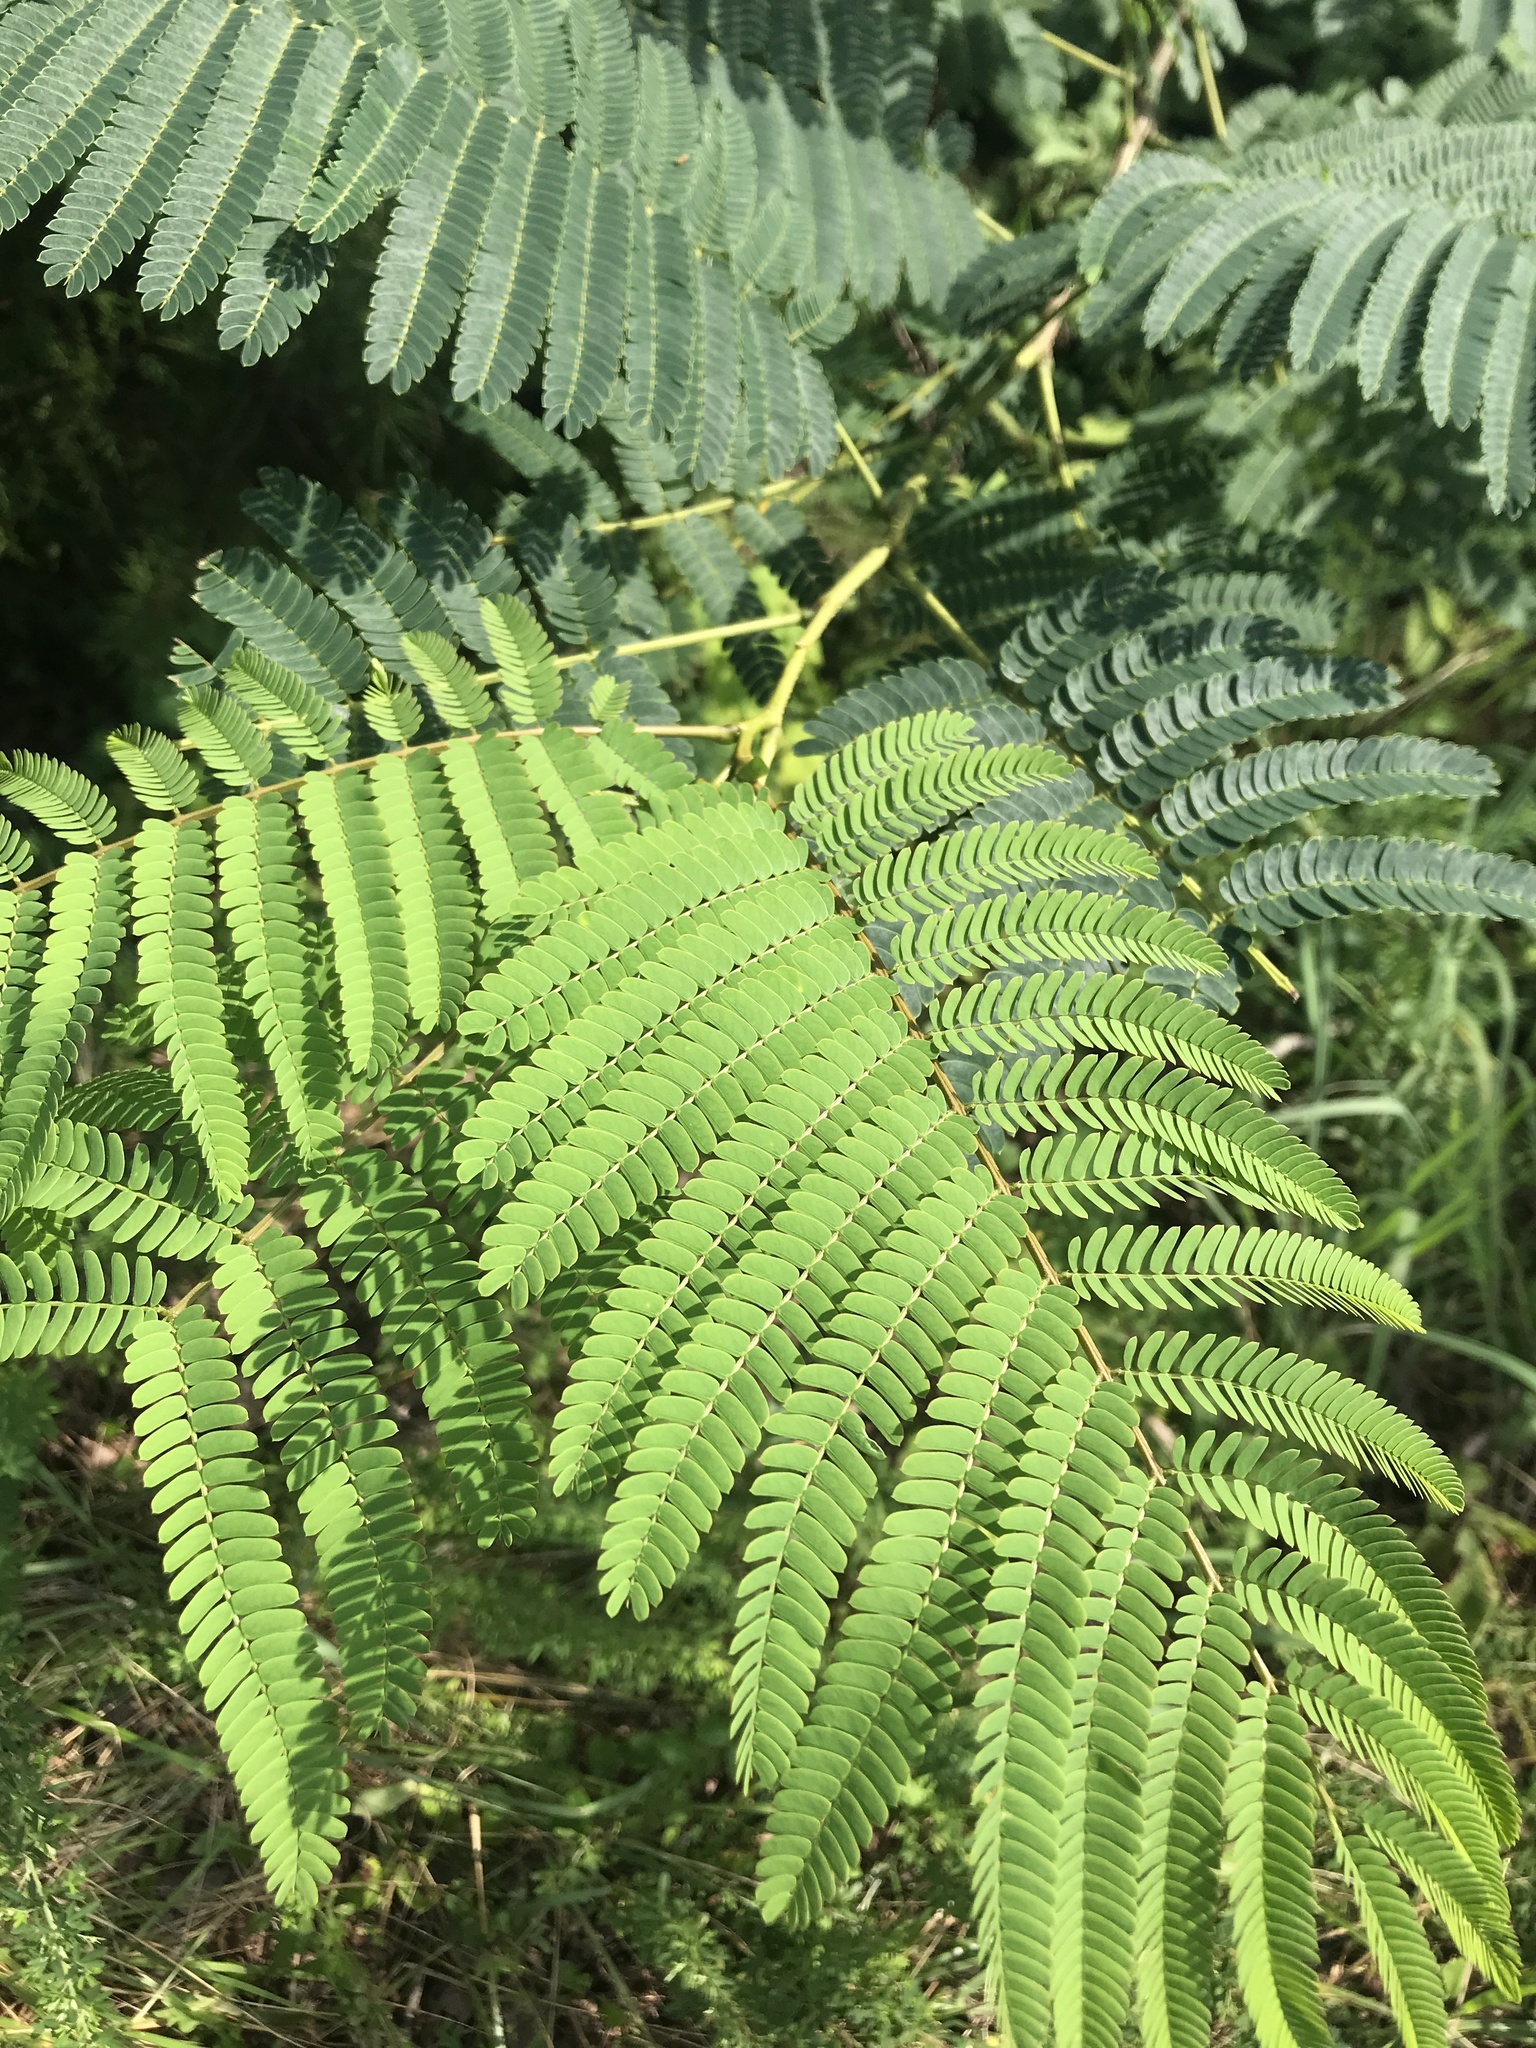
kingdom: Plantae
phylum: Tracheophyta
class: Magnoliopsida
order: Fabales
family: Fabaceae
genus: Albizia
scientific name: Albizia julibrissin
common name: Silktree
